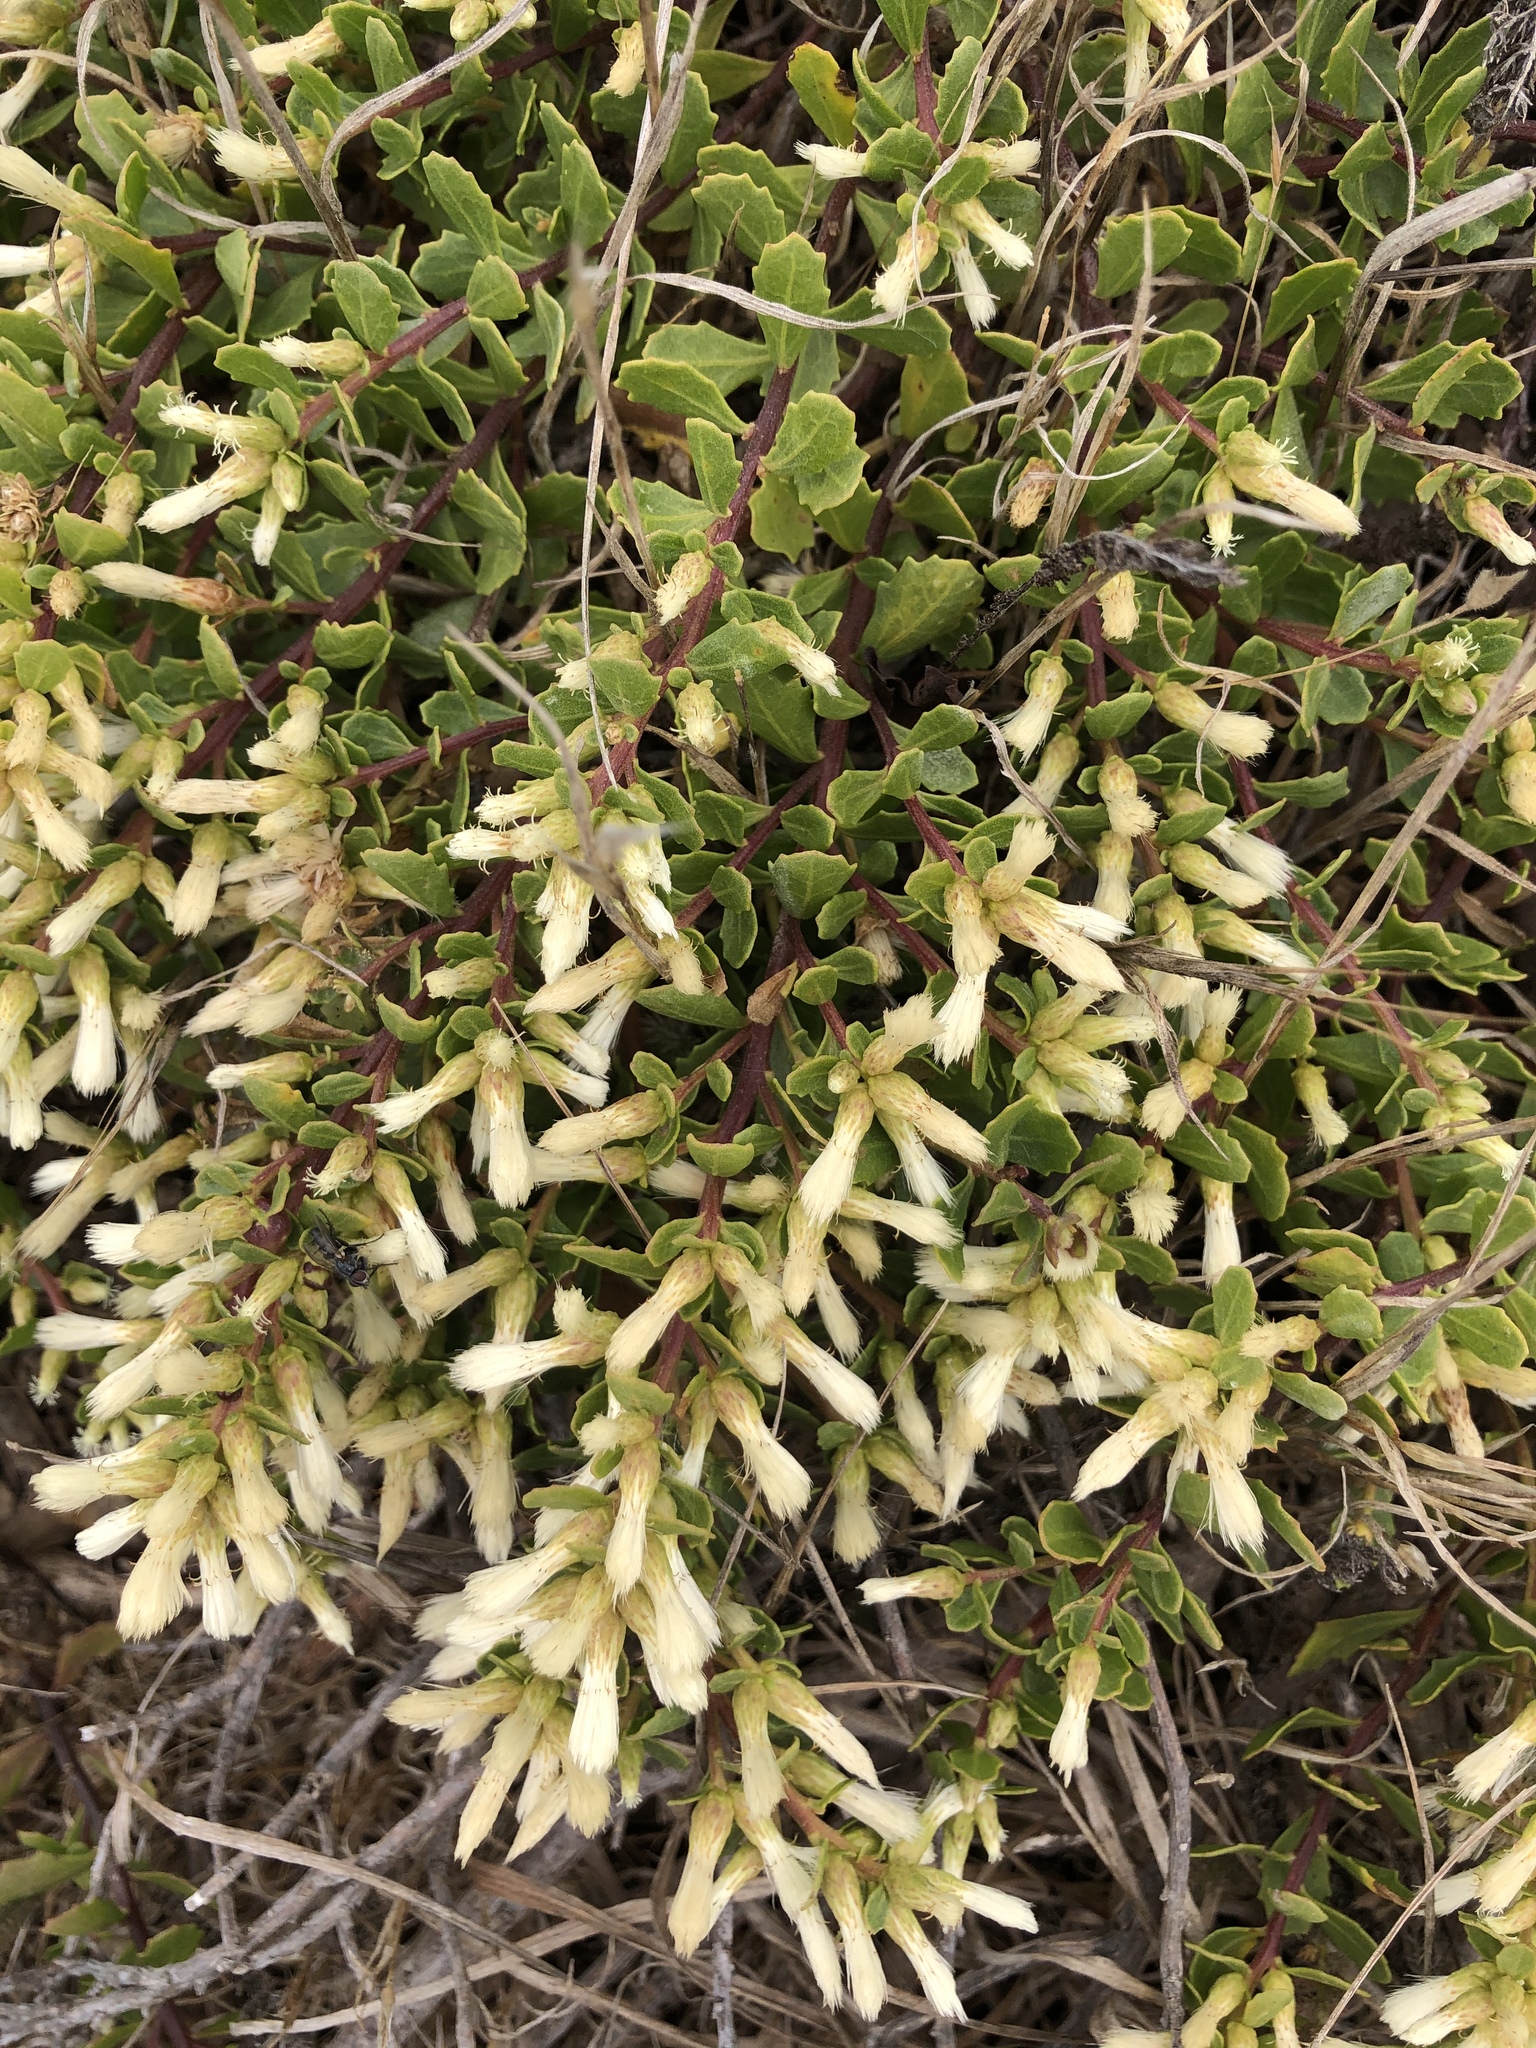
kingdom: Plantae
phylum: Tracheophyta
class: Magnoliopsida
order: Asterales
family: Asteraceae
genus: Baccharis
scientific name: Baccharis pilularis
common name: Coyotebrush
